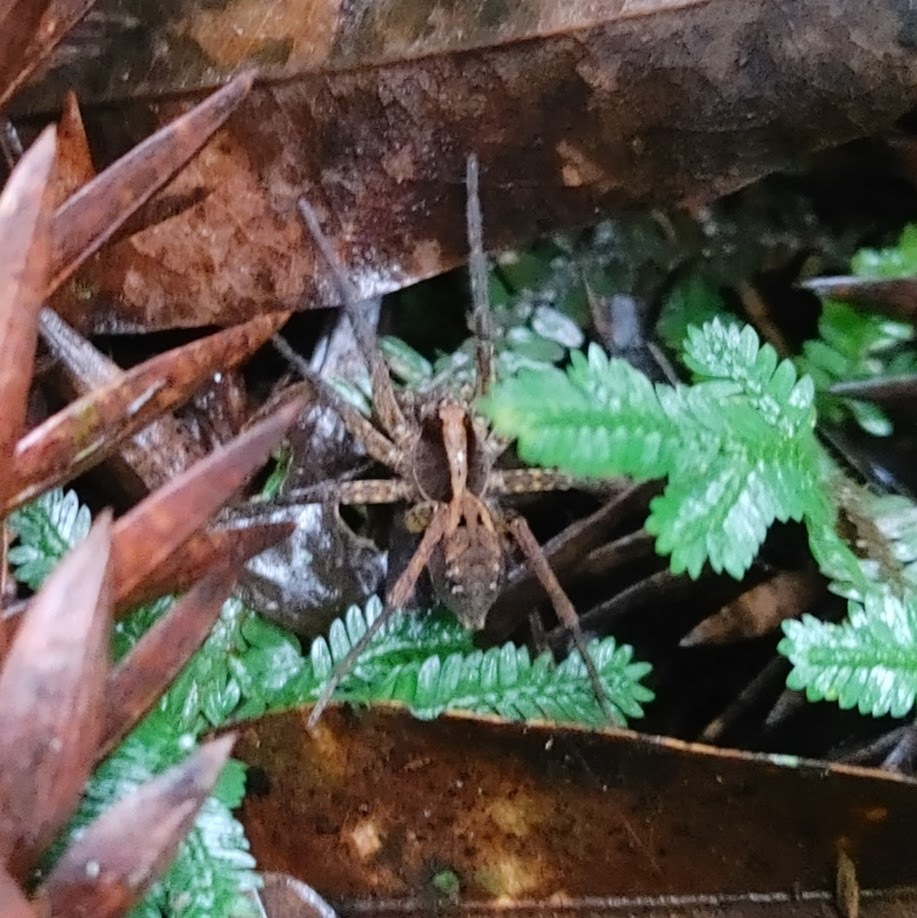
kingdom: Animalia
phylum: Arthropoda
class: Arachnida
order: Araneae
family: Lycosidae
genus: Hogna
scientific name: Hogna gumia
